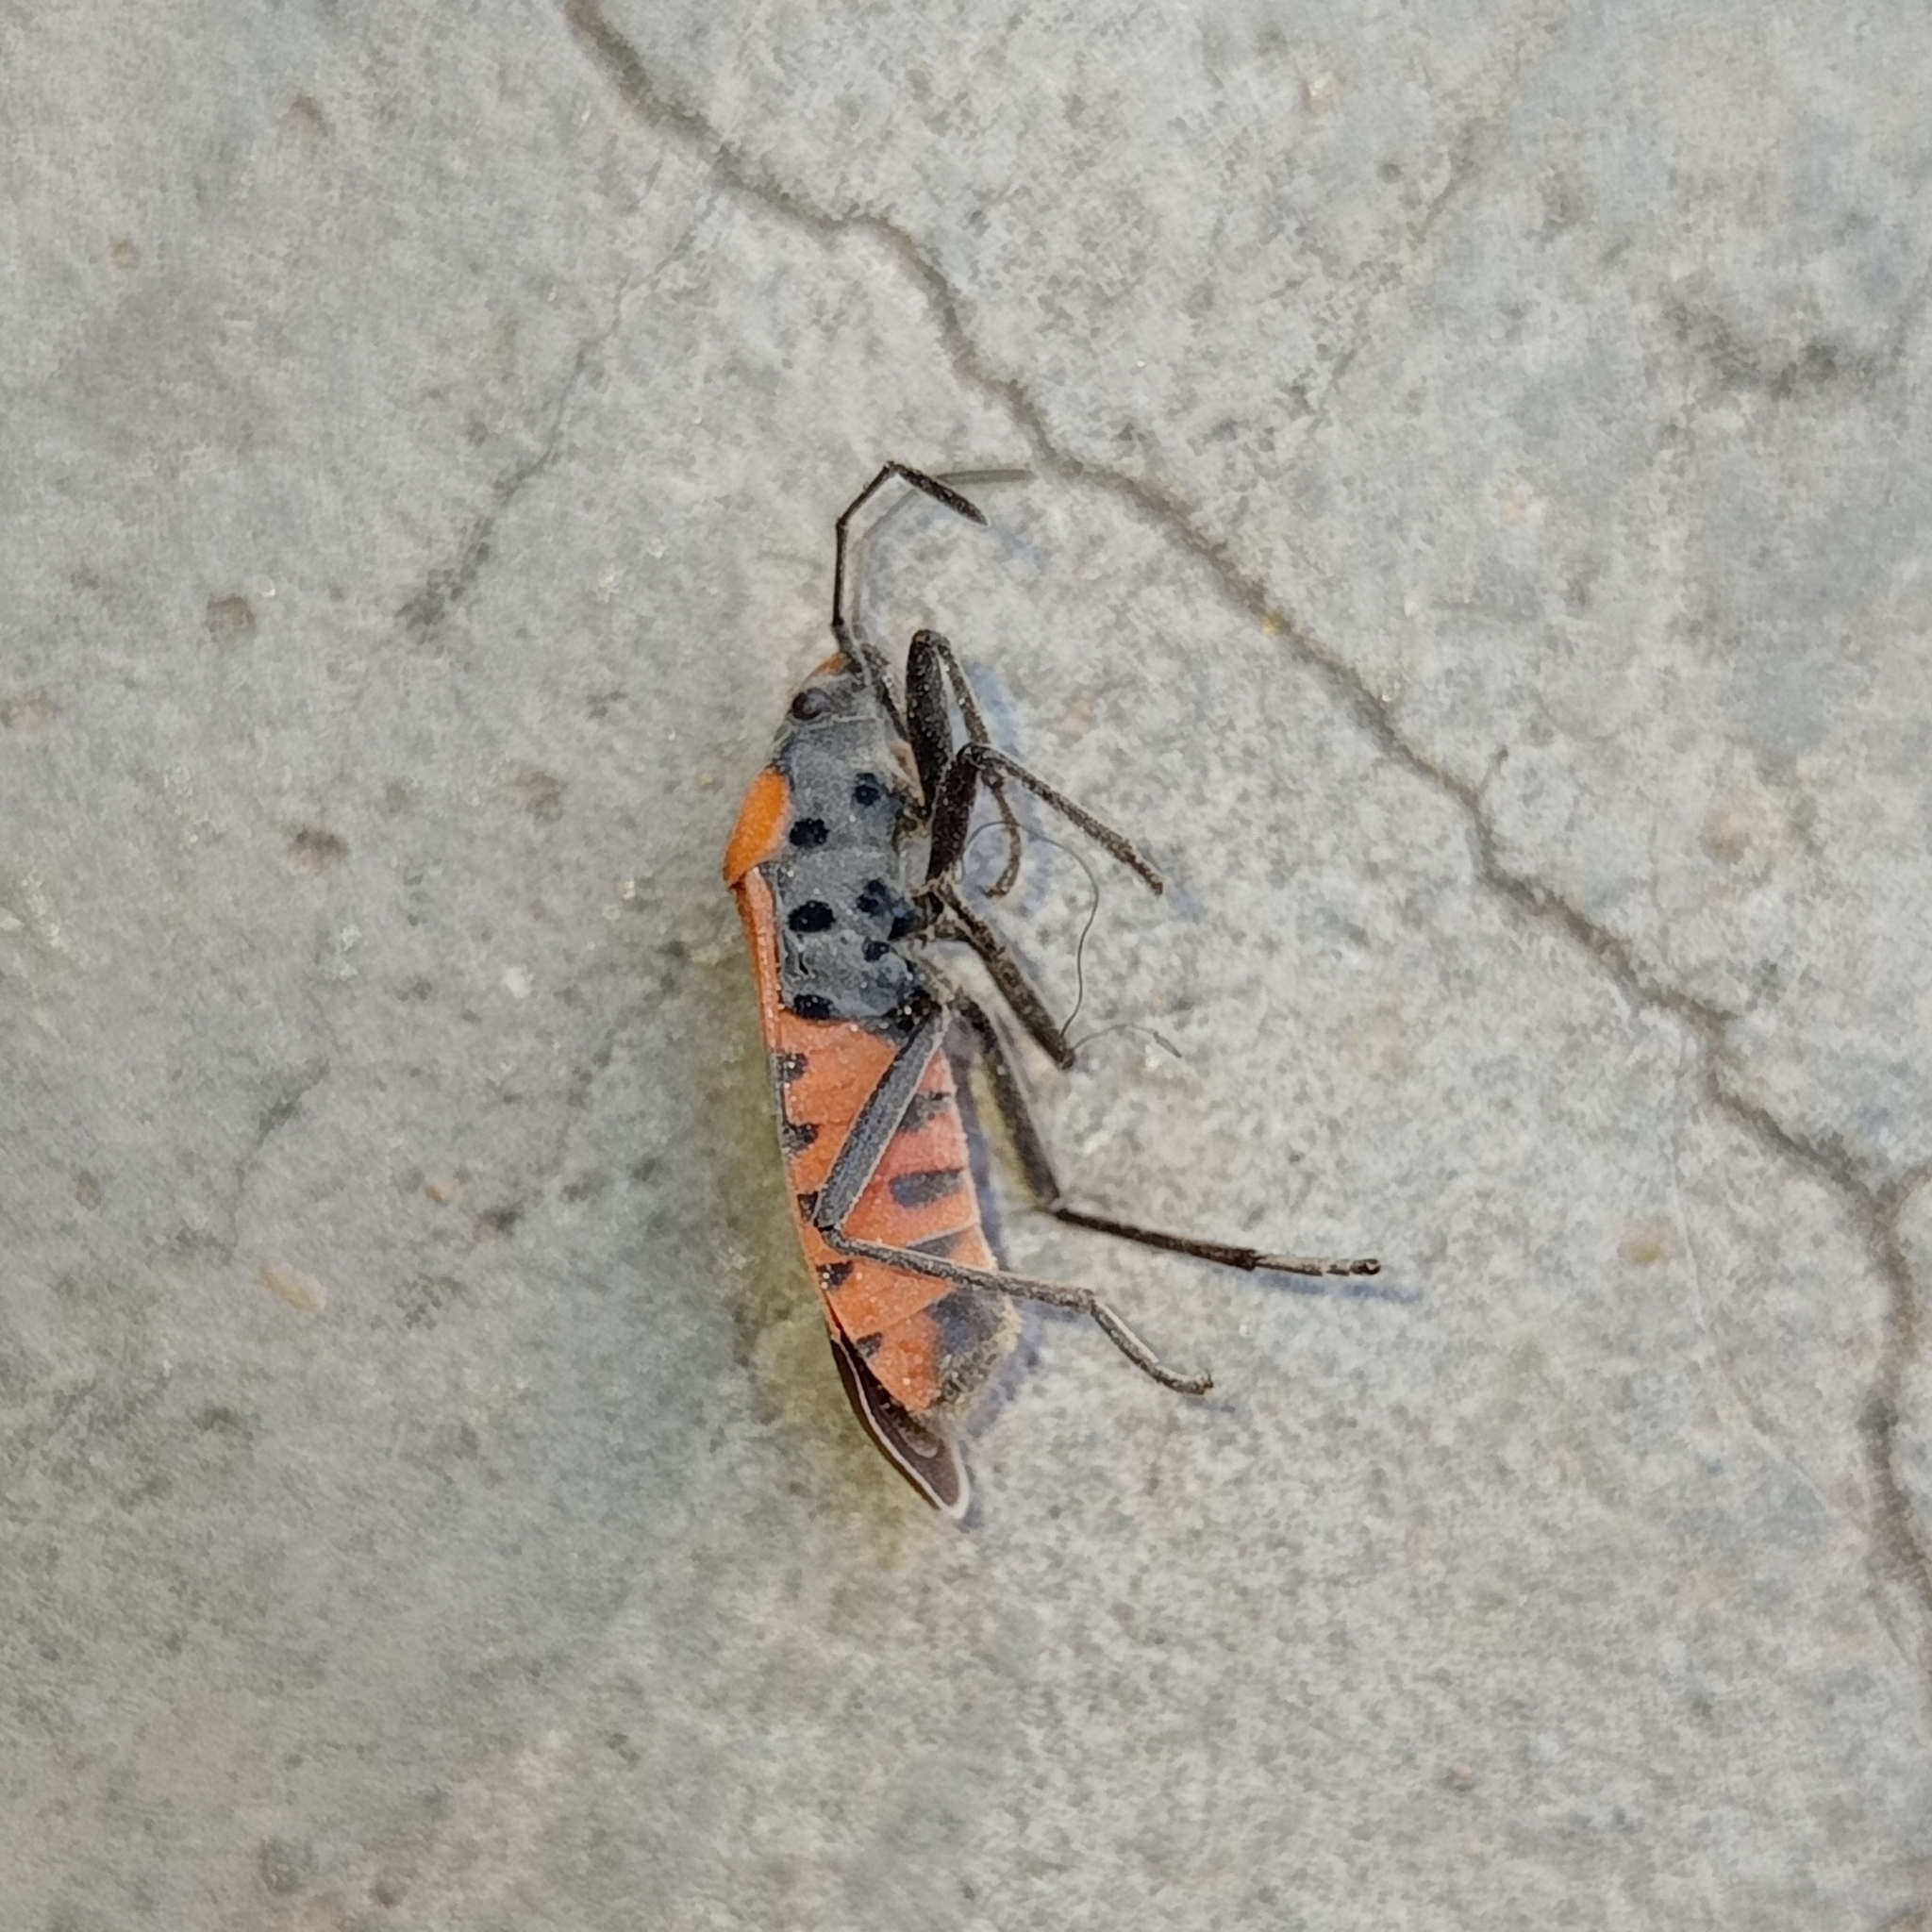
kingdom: Animalia
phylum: Arthropoda
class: Insecta
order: Hemiptera
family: Lygaeidae
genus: Lygaeus
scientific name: Lygaeus equestris
